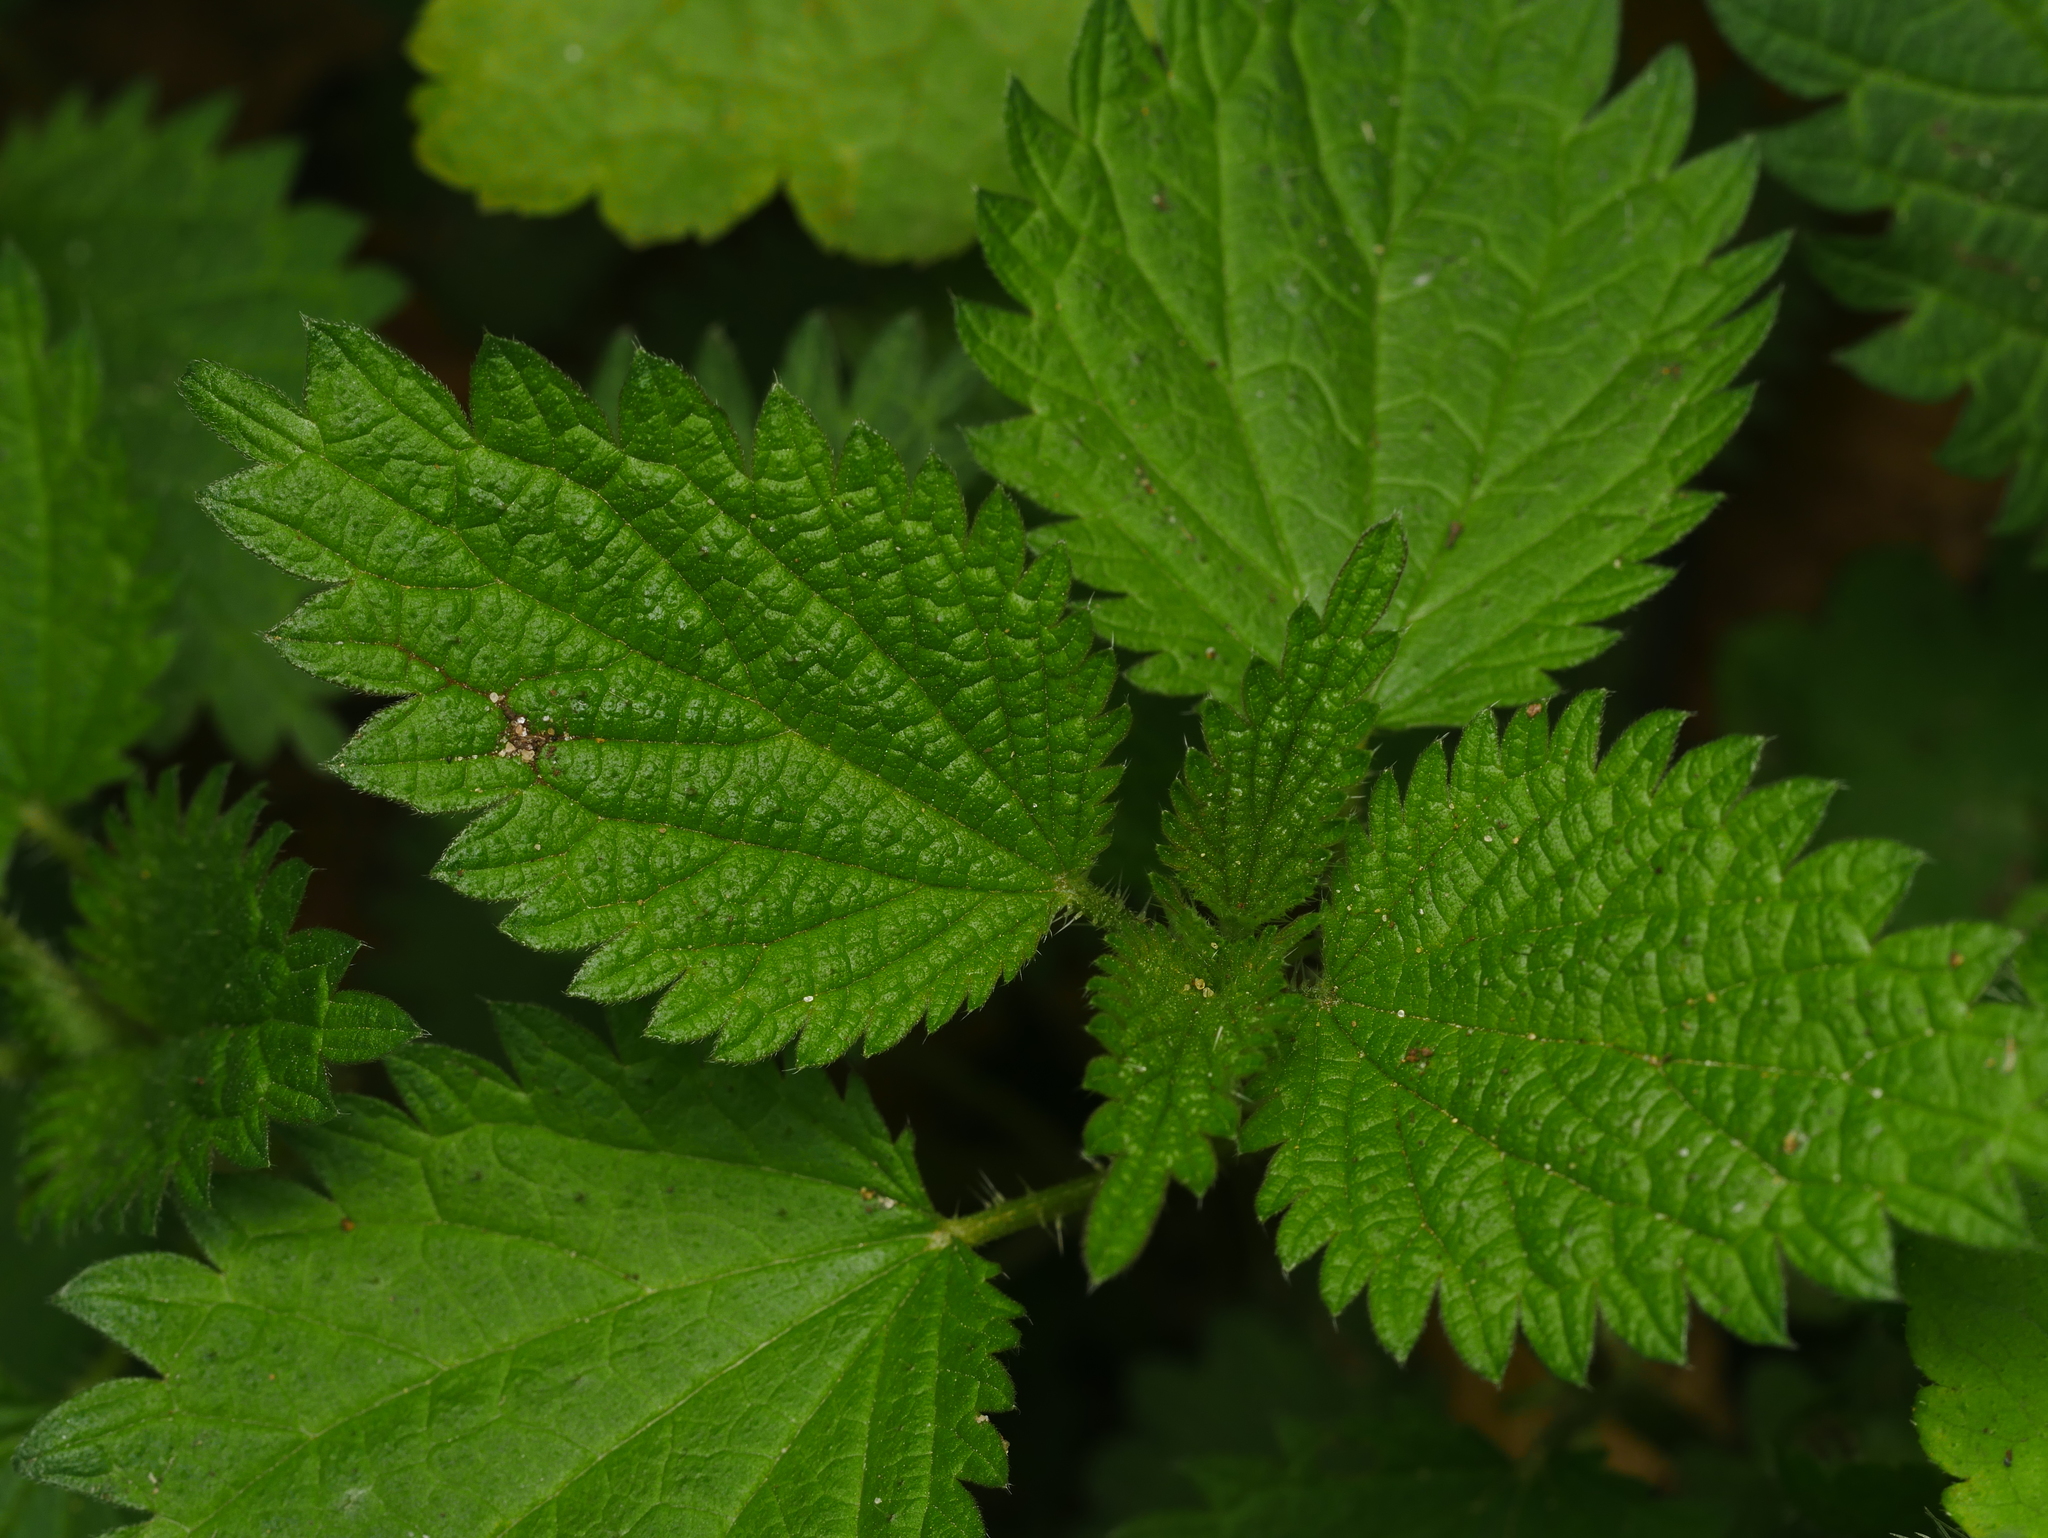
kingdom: Plantae
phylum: Tracheophyta
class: Magnoliopsida
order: Rosales
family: Urticaceae
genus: Urtica
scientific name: Urtica dioica
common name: Common nettle
